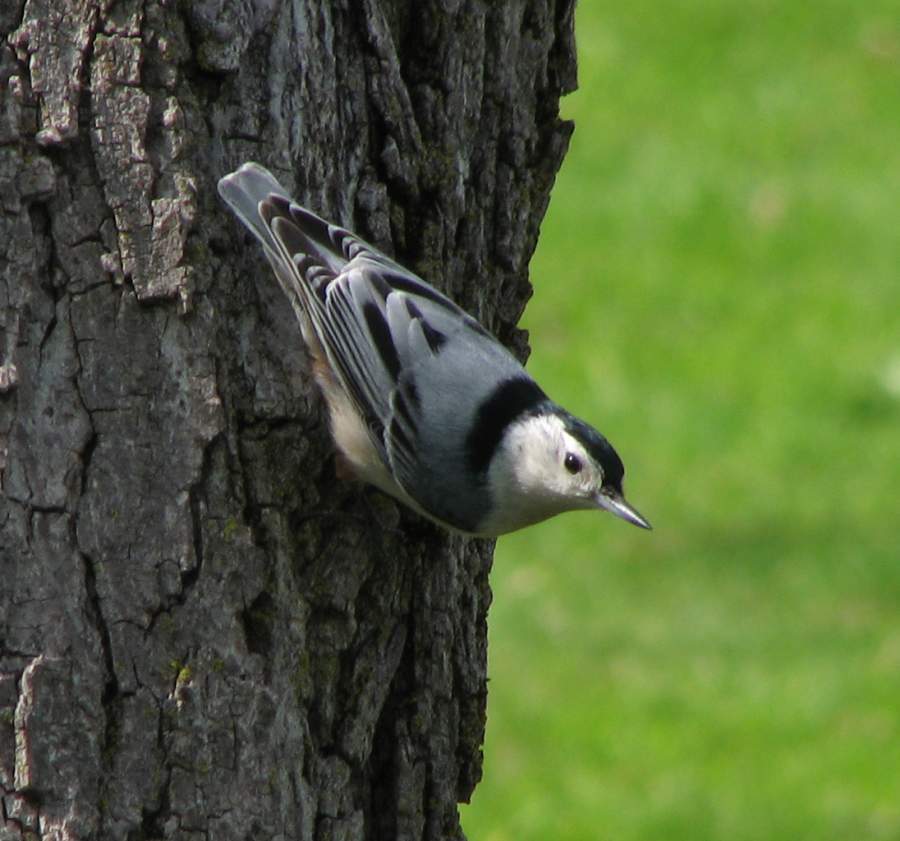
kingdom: Animalia
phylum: Chordata
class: Aves
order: Passeriformes
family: Sittidae
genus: Sitta
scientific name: Sitta carolinensis
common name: White-breasted nuthatch
